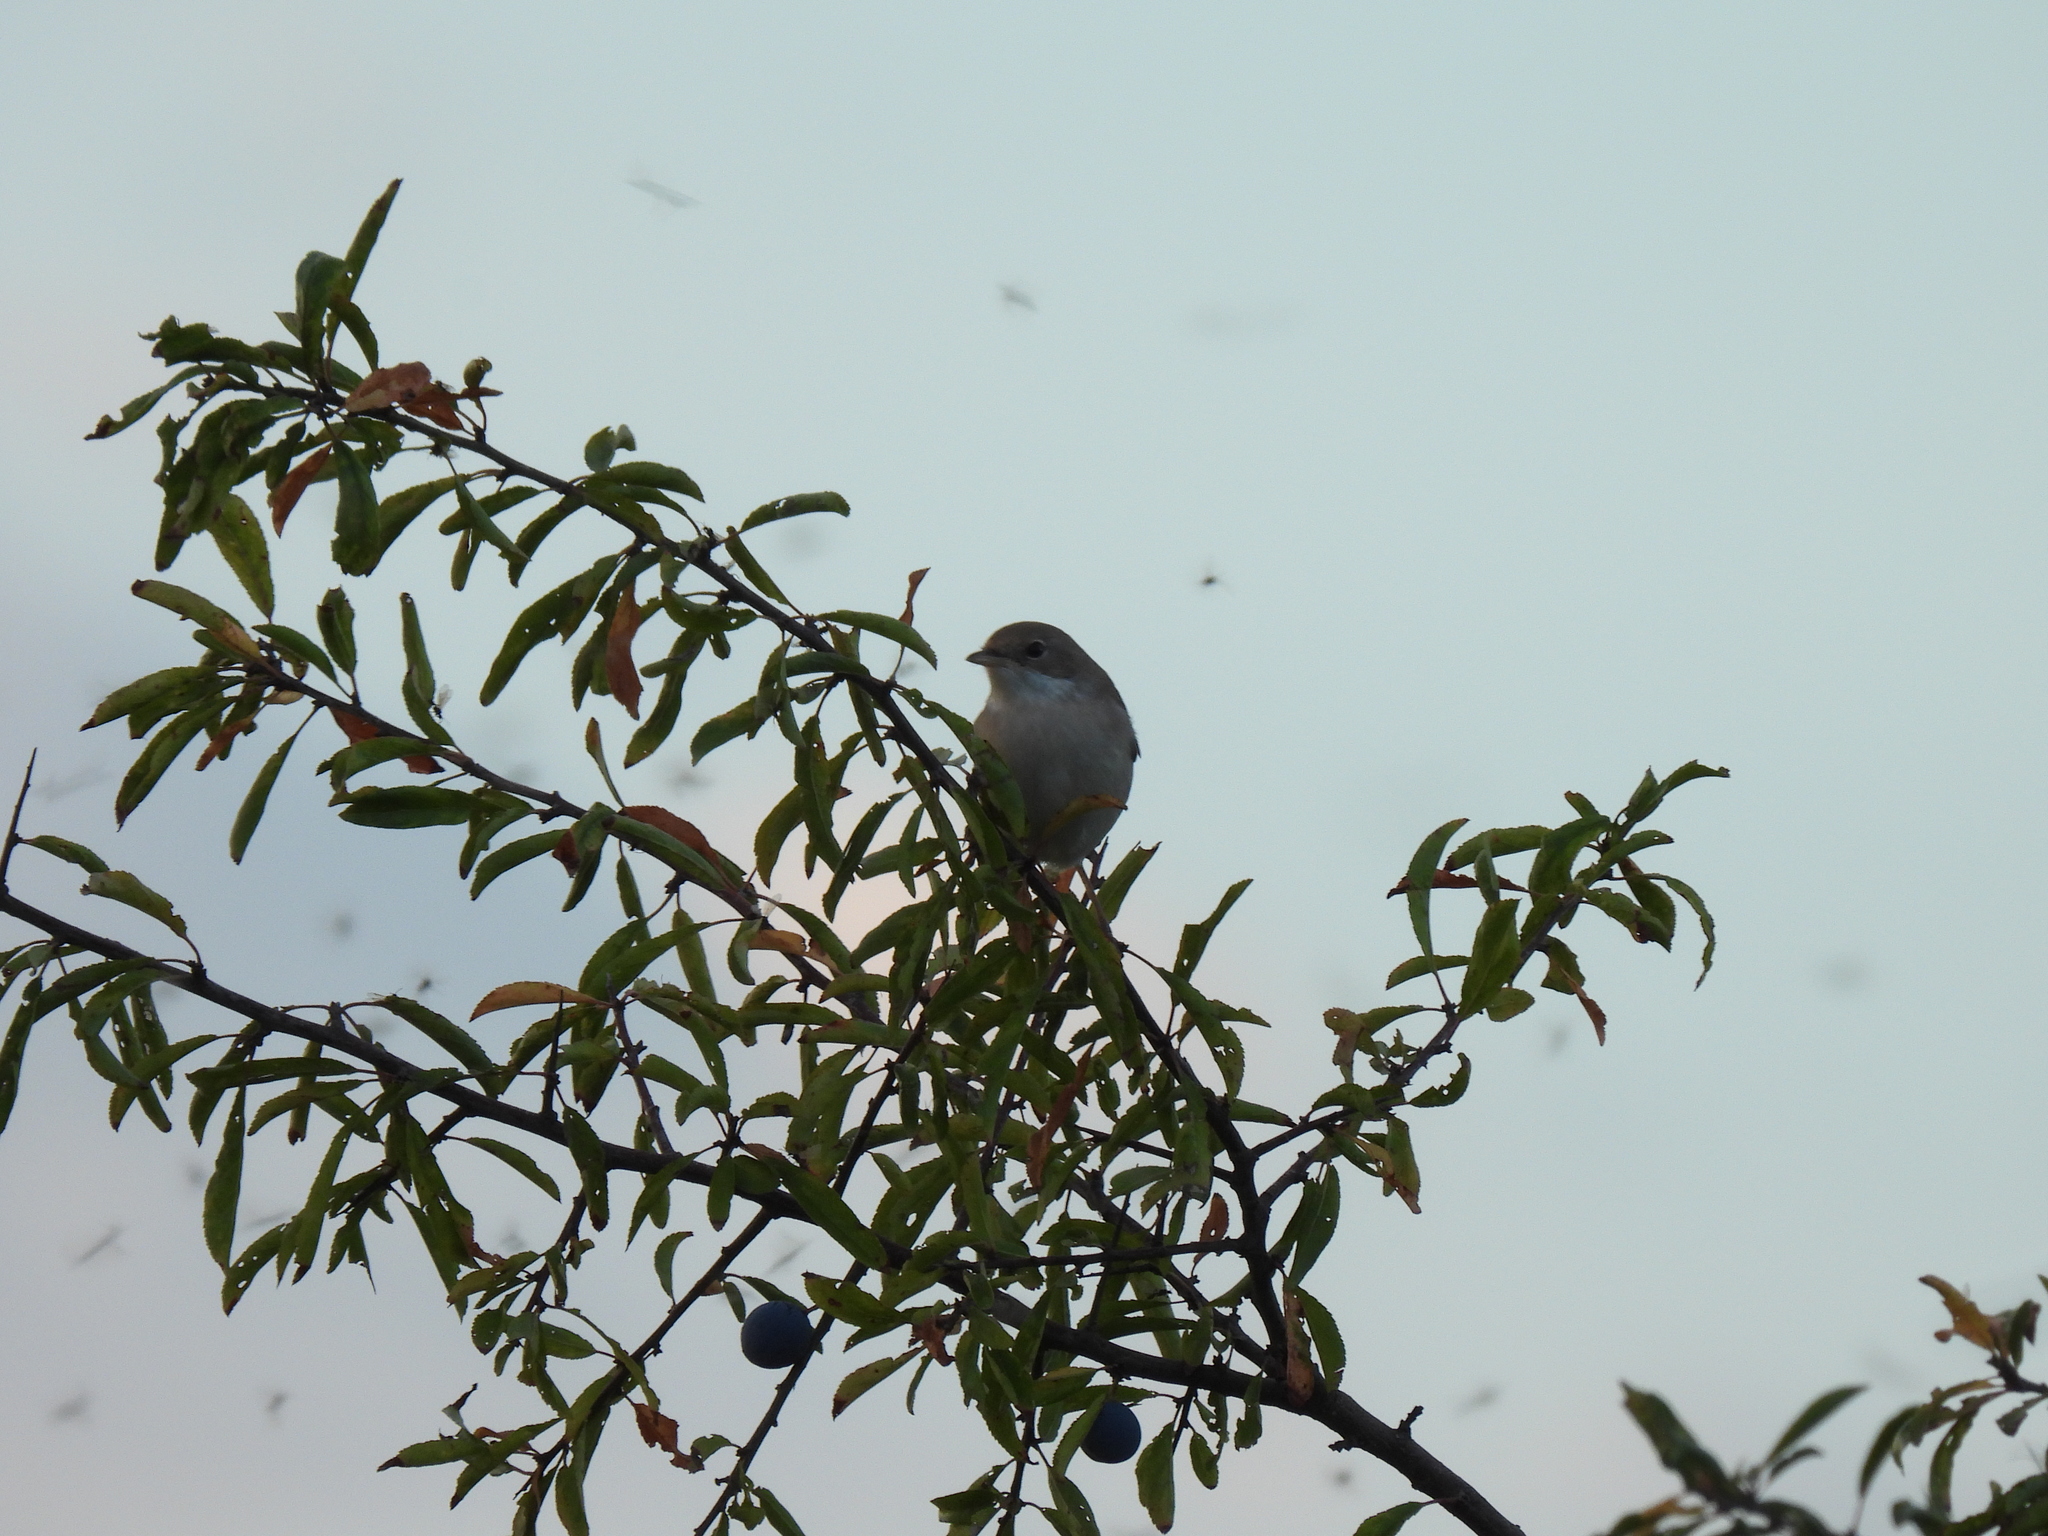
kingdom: Animalia
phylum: Chordata
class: Aves
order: Passeriformes
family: Sylviidae
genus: Sylvia
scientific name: Sylvia communis
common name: Common whitethroat
